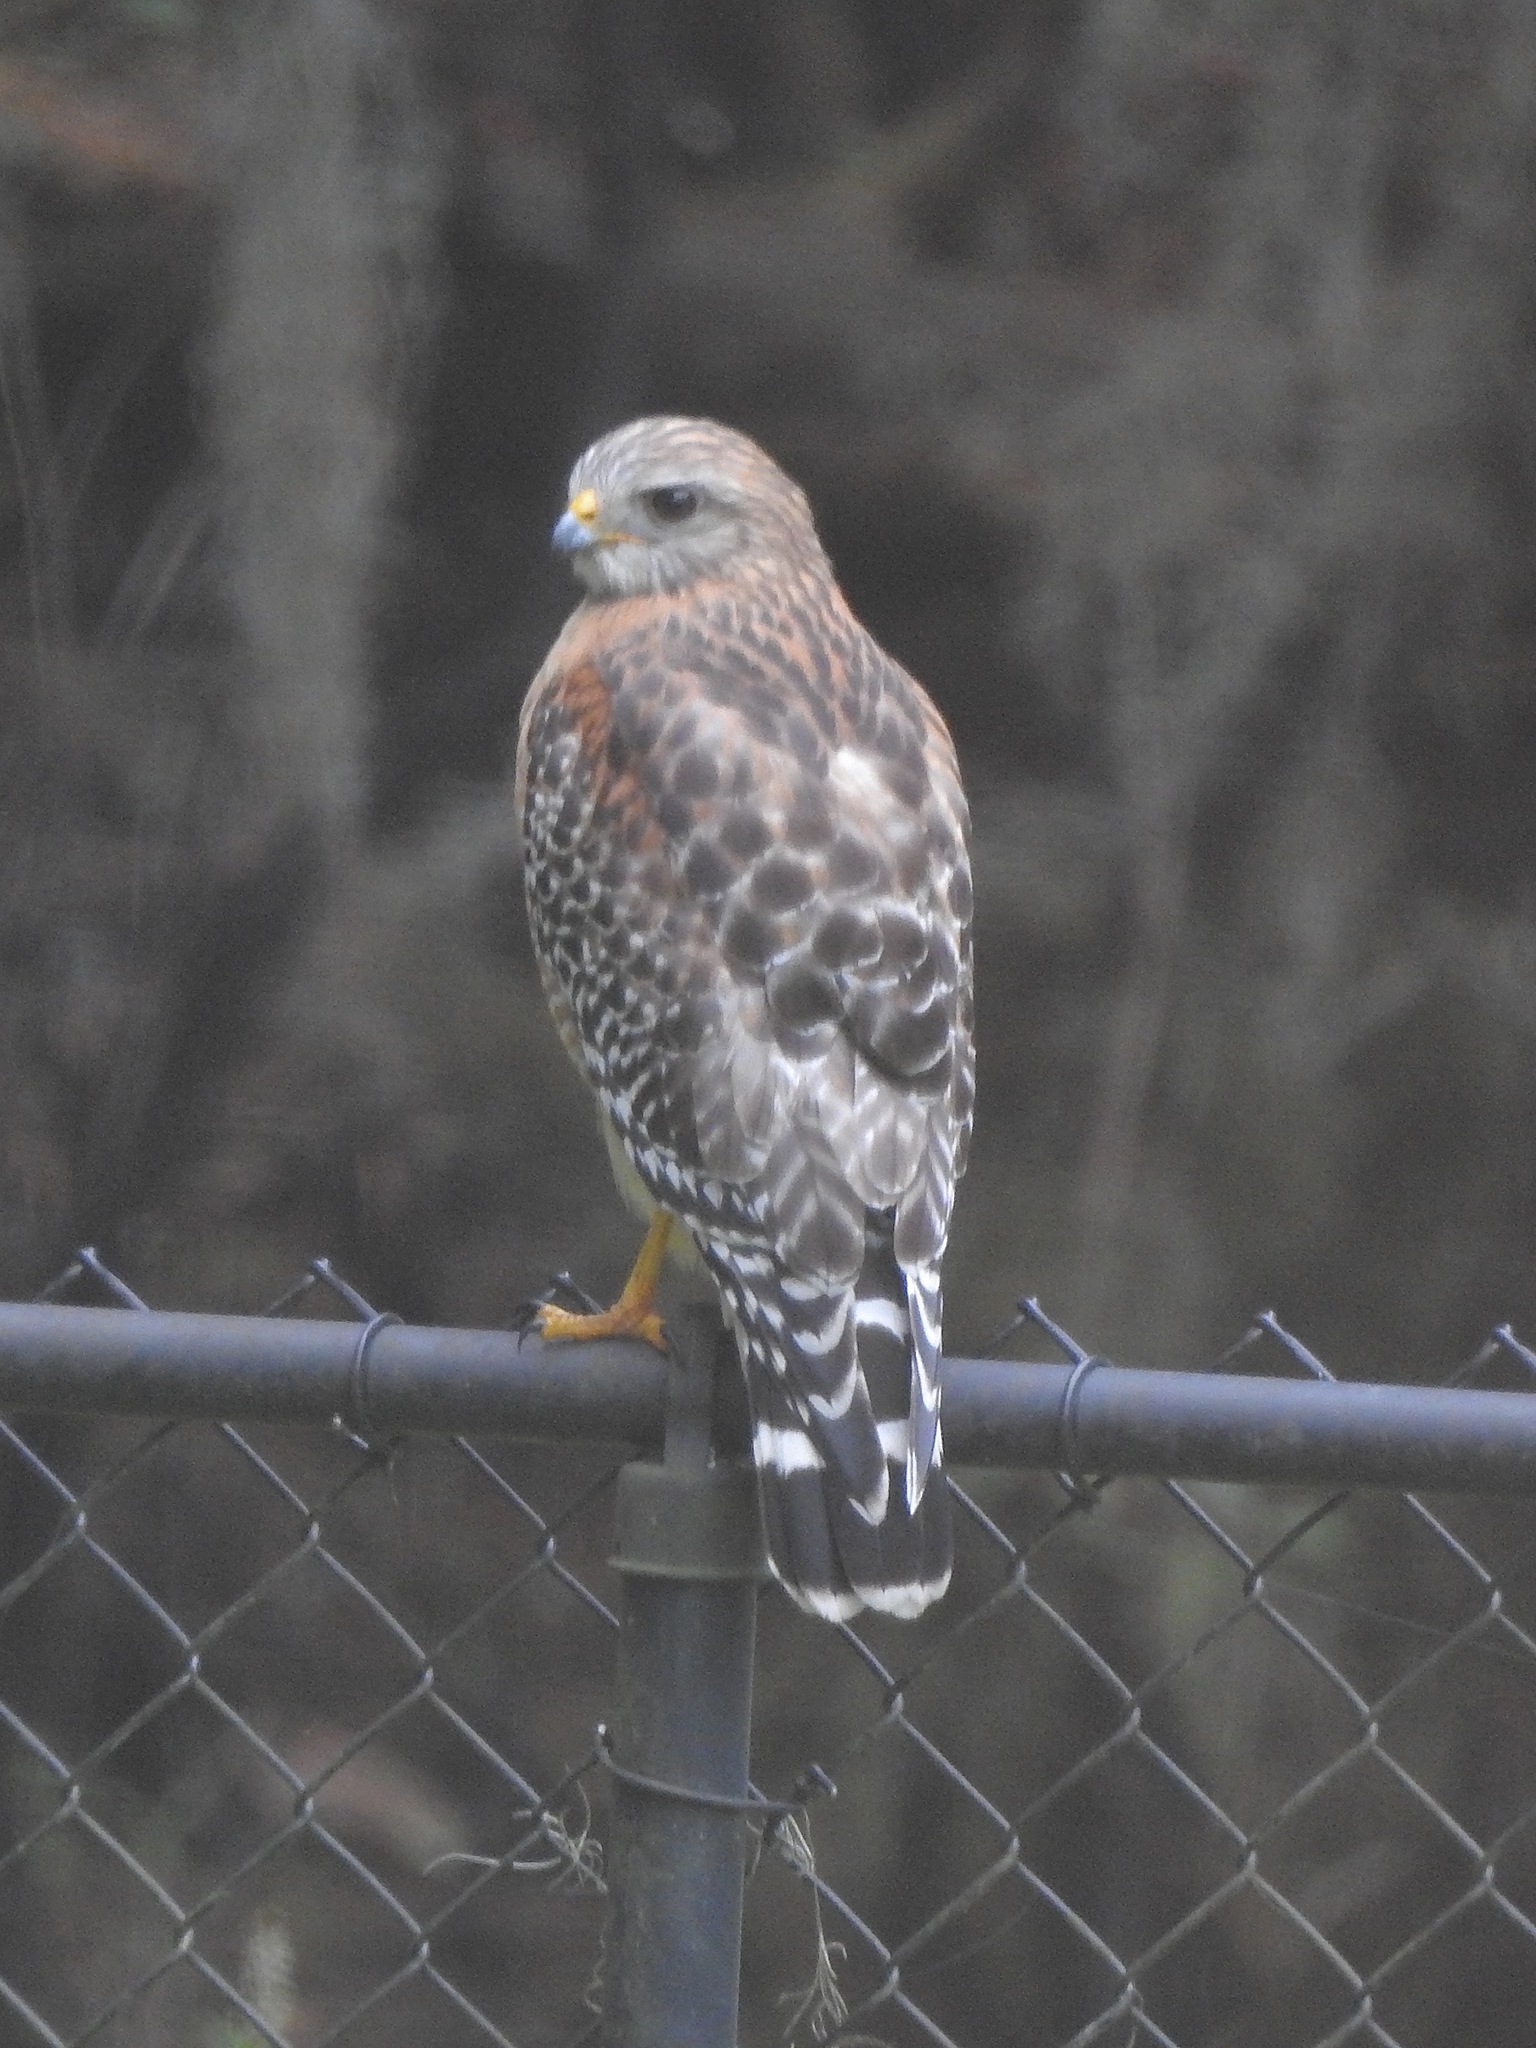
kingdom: Animalia
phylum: Chordata
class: Aves
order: Accipitriformes
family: Accipitridae
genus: Buteo
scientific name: Buteo lineatus
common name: Red-shouldered hawk
